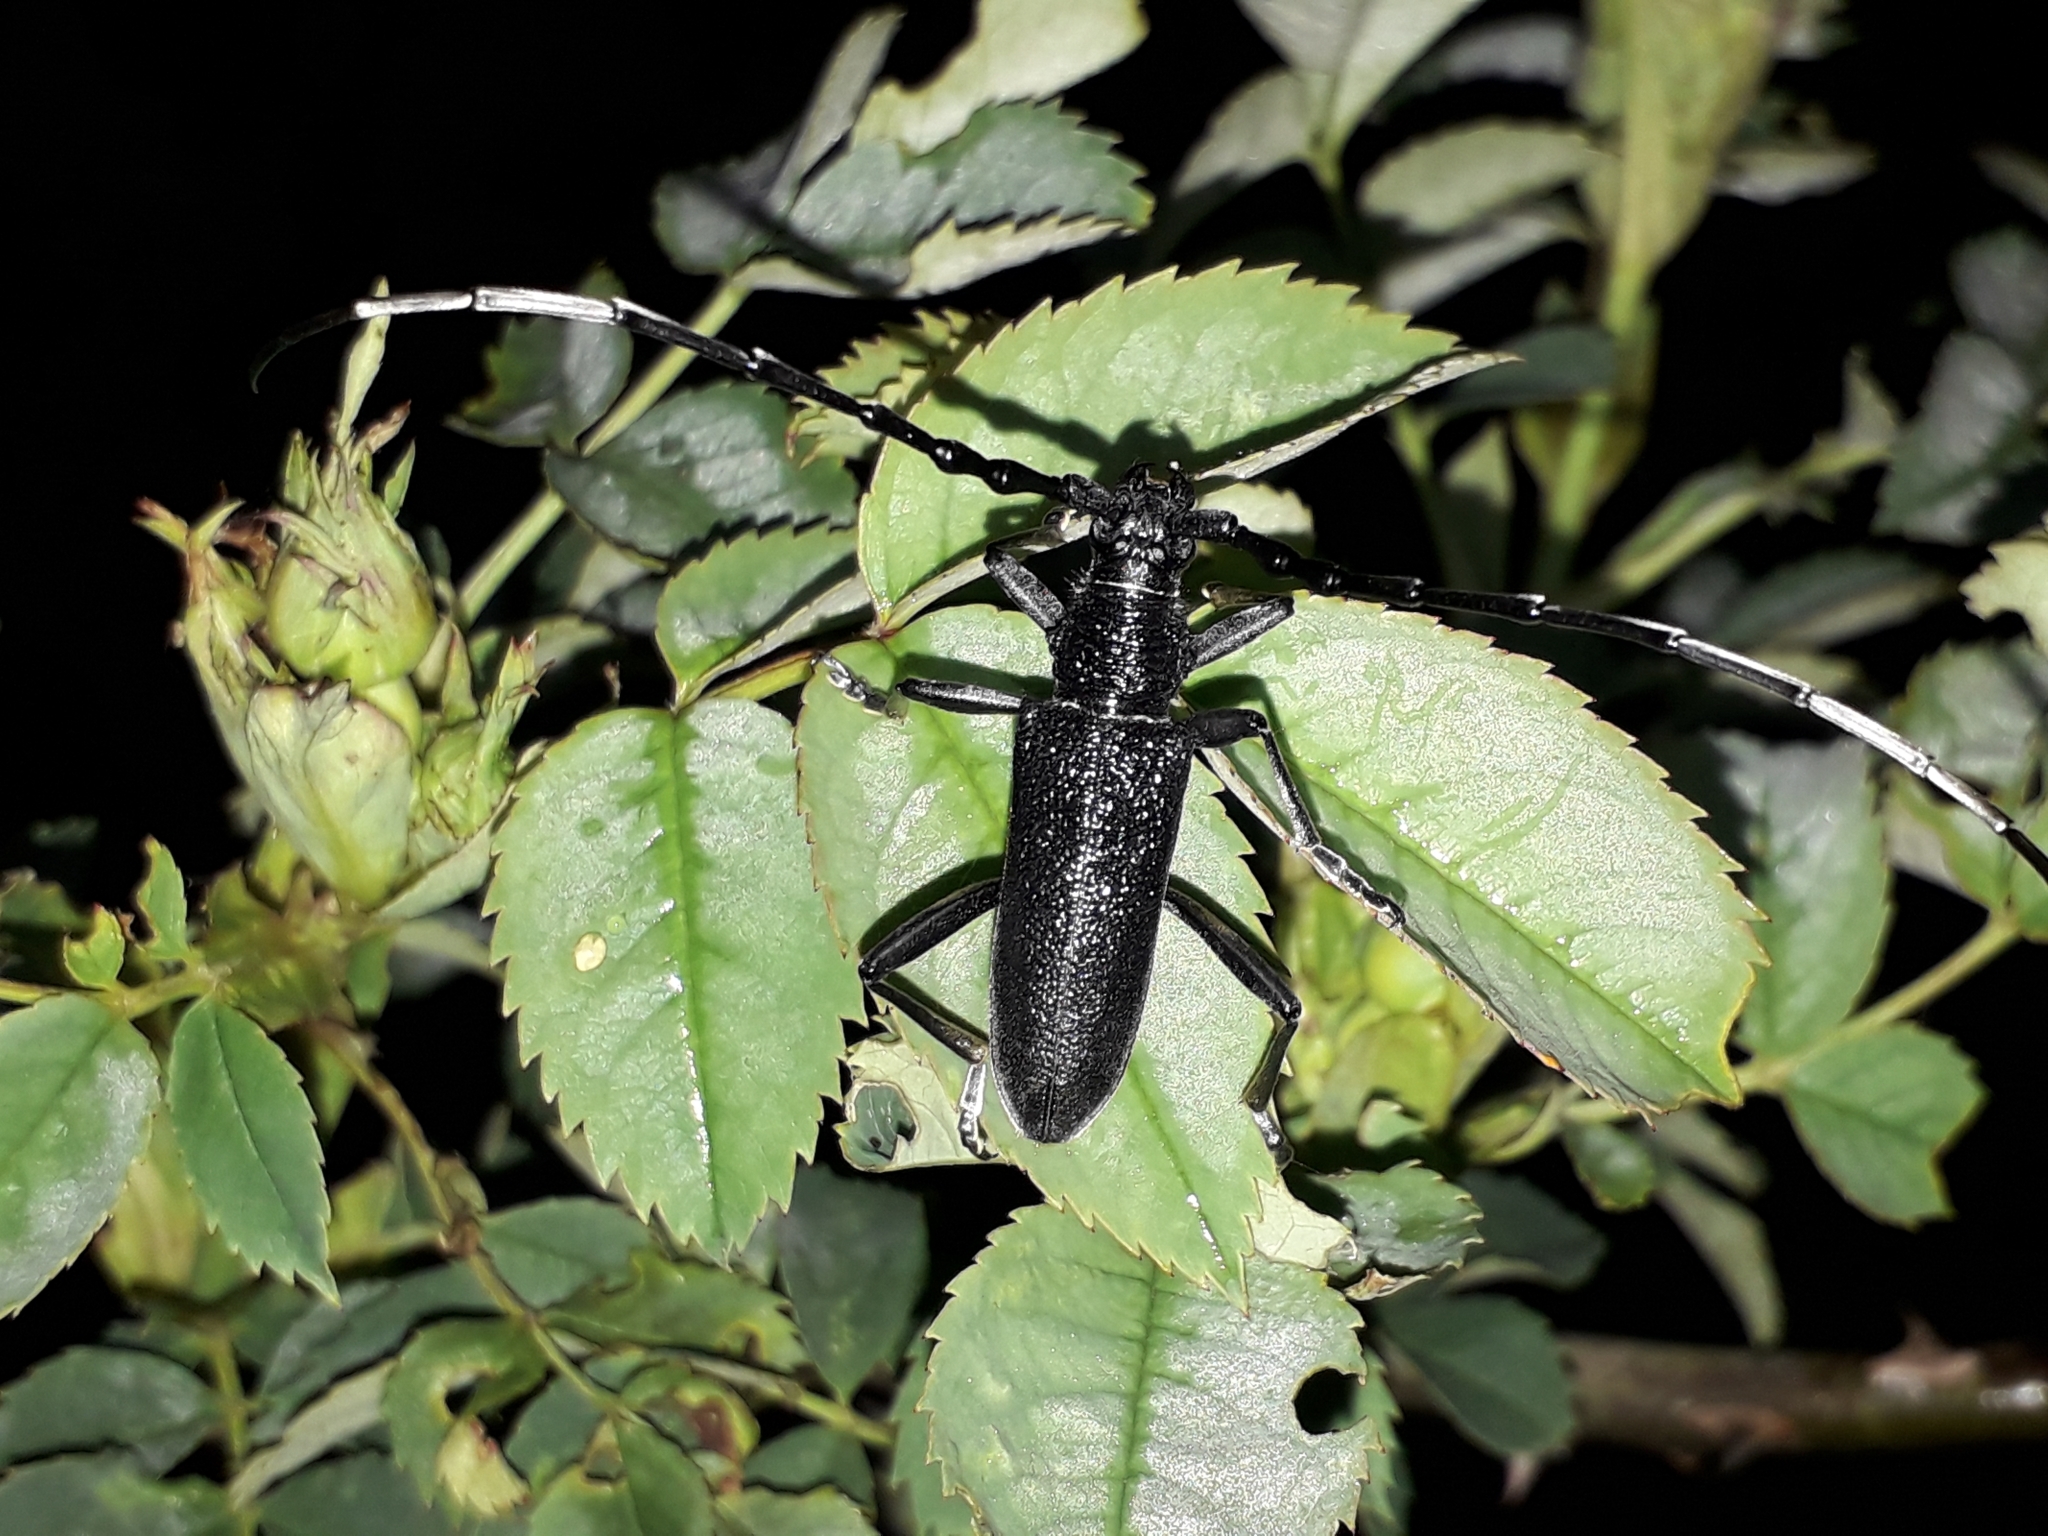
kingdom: Animalia
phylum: Arthropoda
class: Insecta
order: Coleoptera
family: Cerambycidae
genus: Cerambyx
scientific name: Cerambyx scopolii
